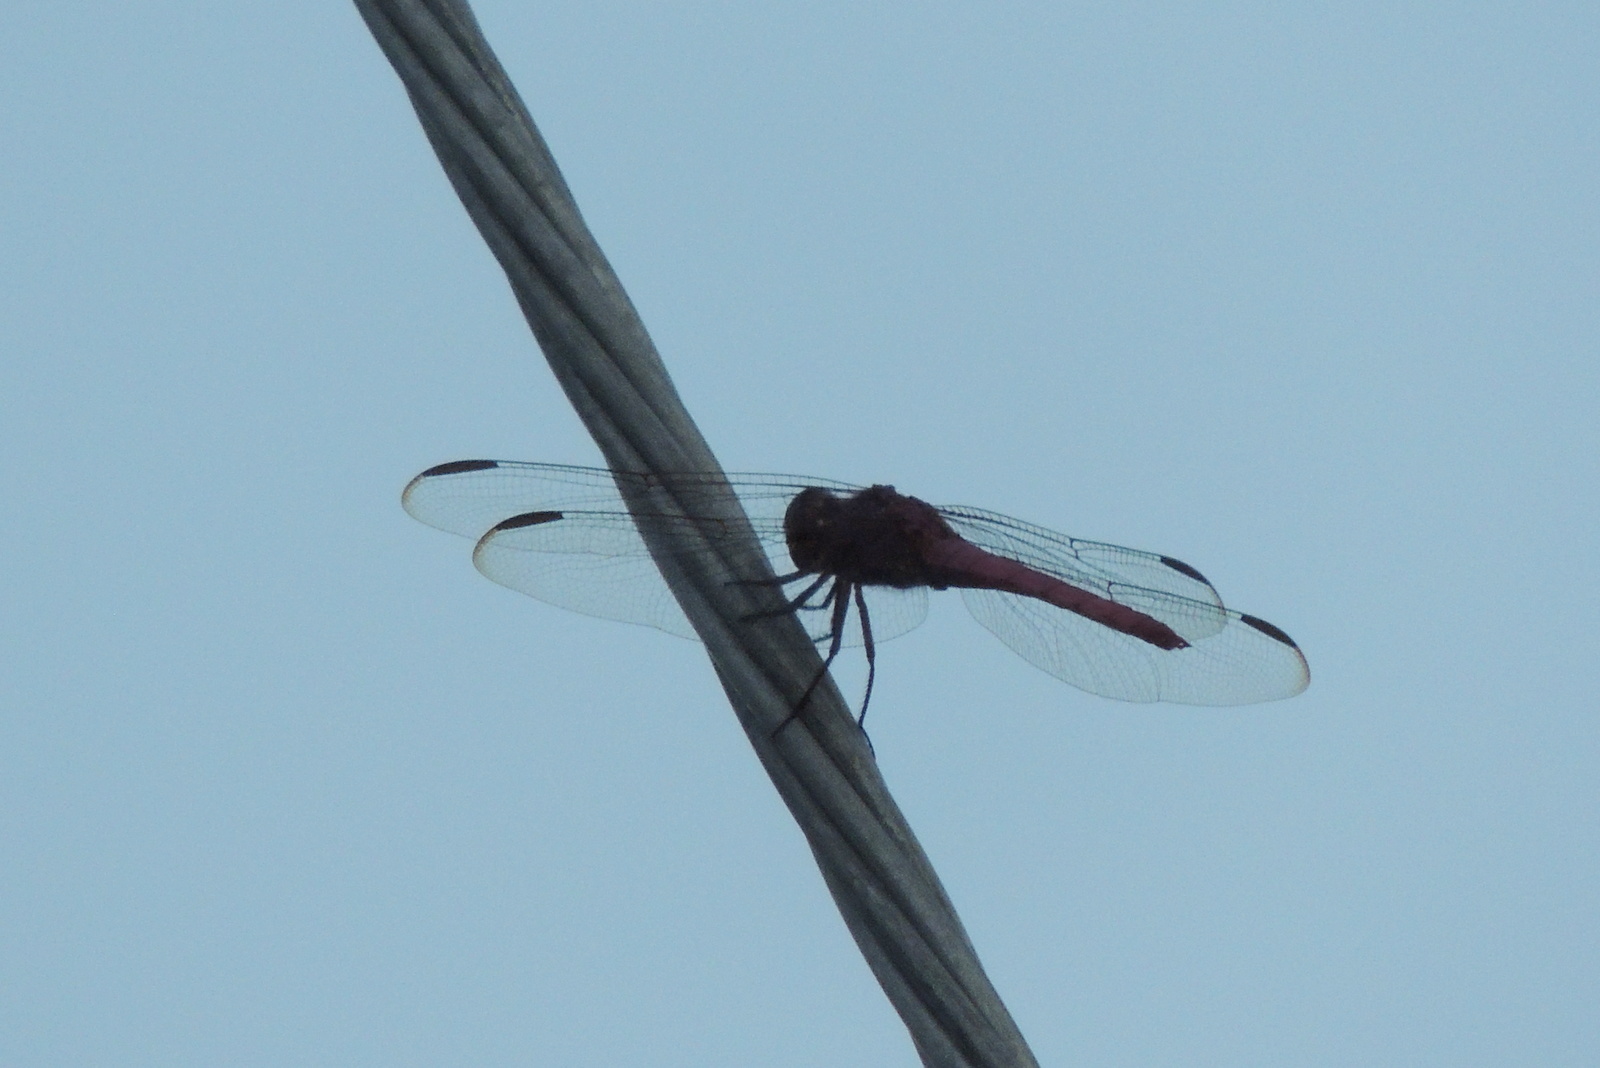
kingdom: Animalia
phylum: Arthropoda
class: Insecta
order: Odonata
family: Libellulidae
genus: Orthemis
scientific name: Orthemis ferruginea
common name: Roseate skimmer
